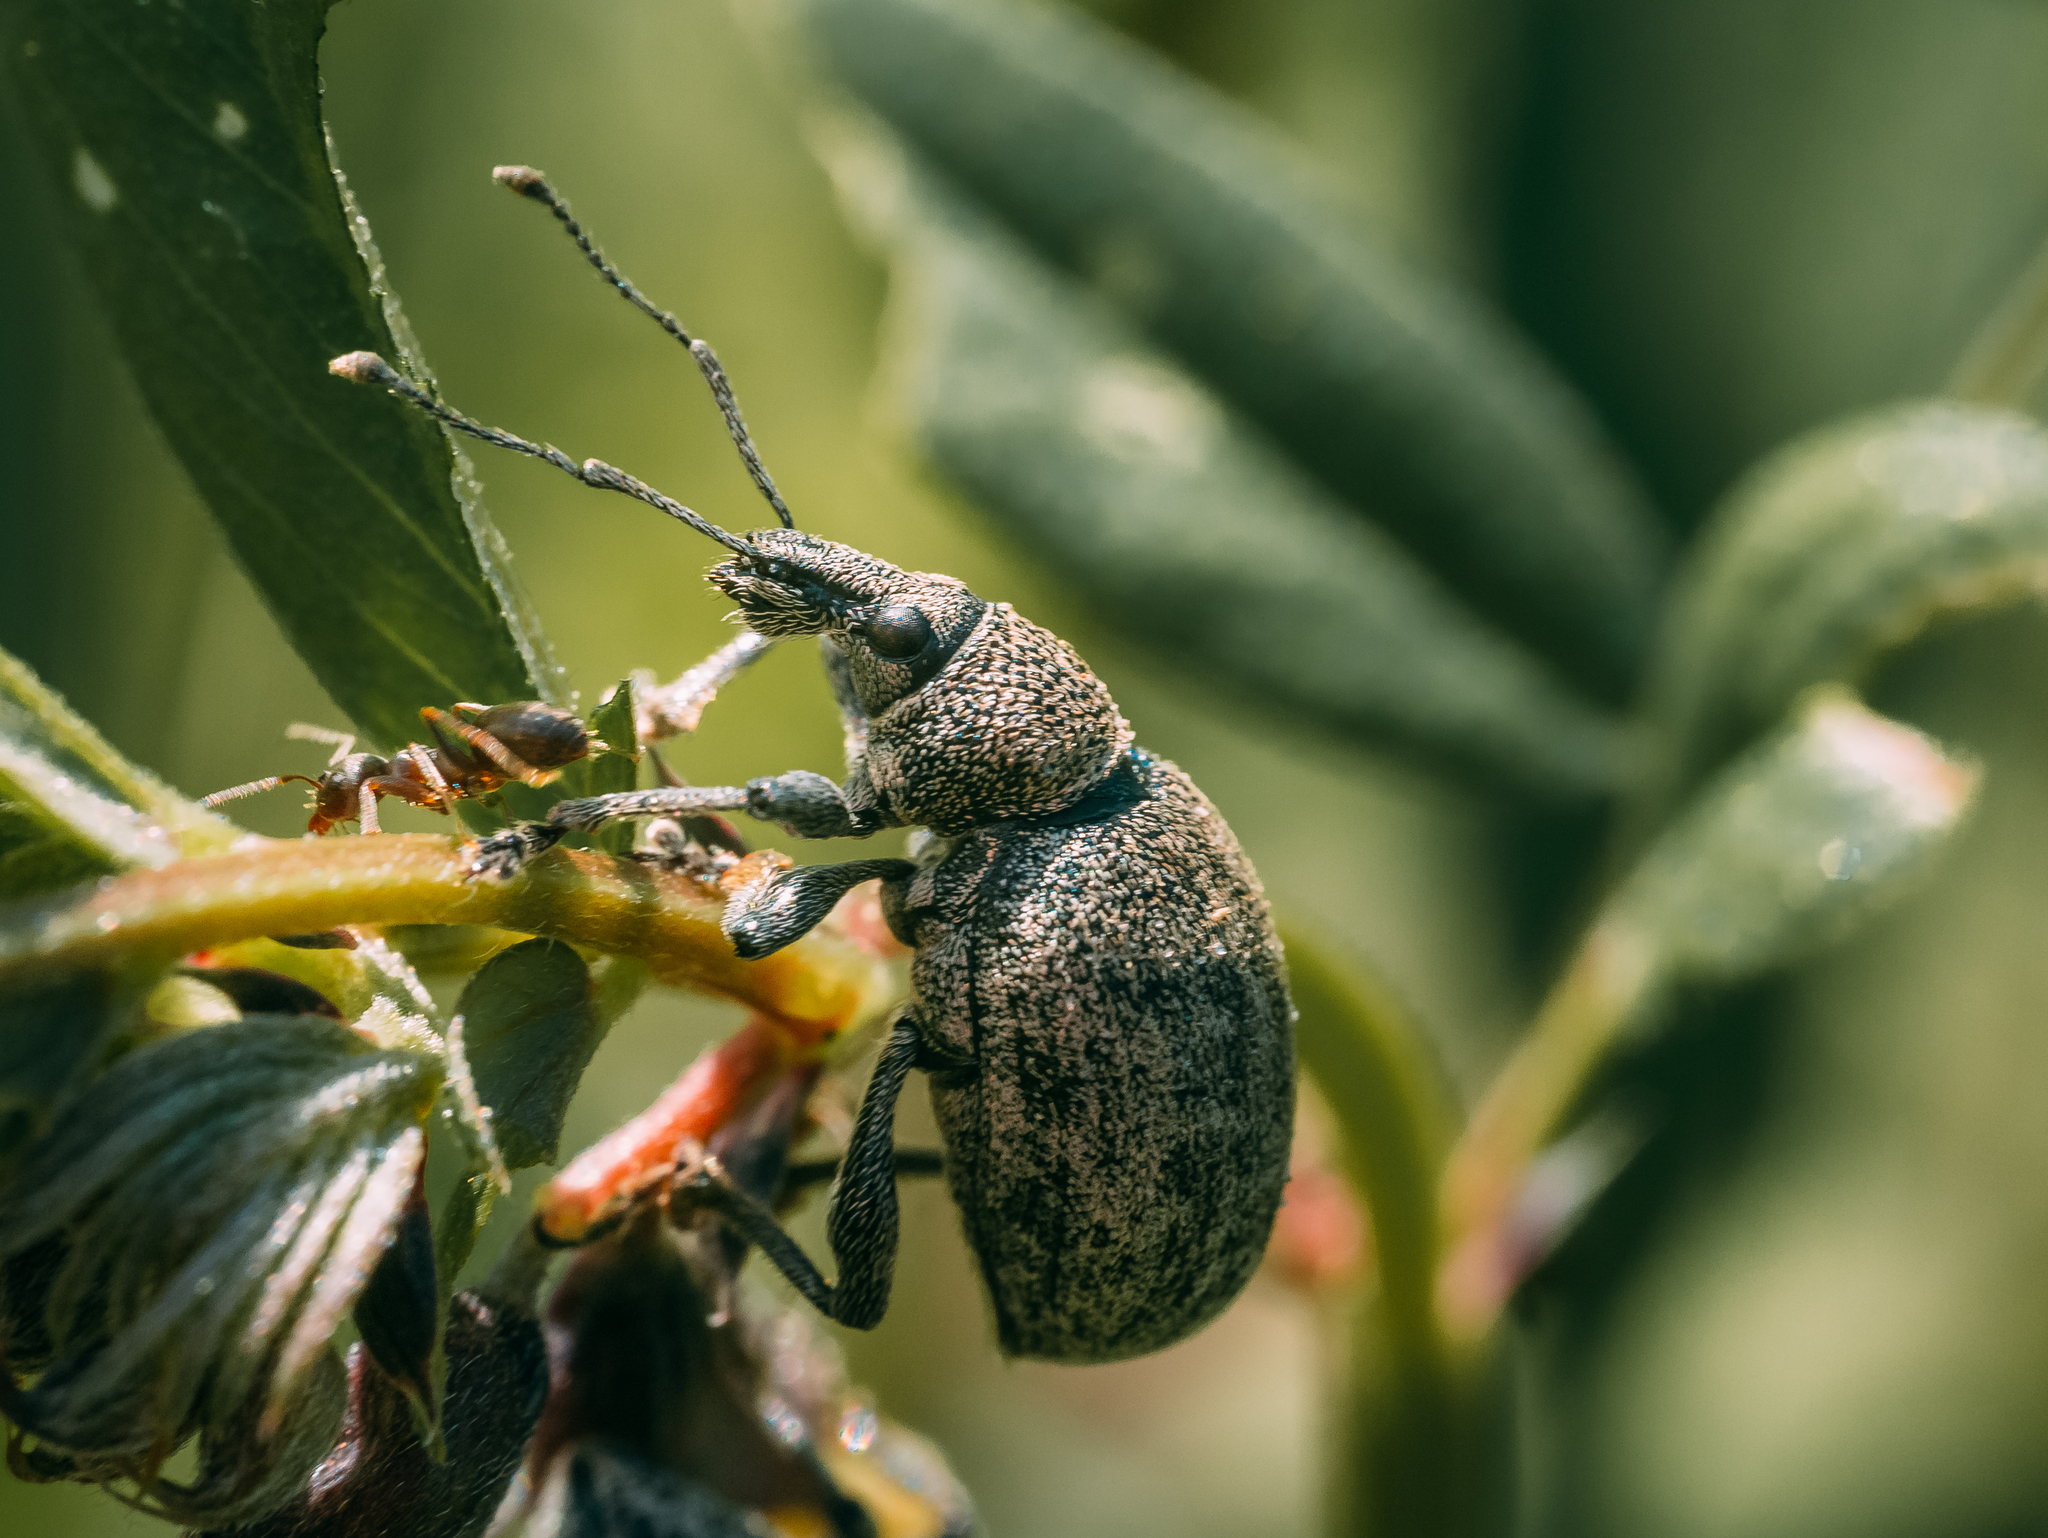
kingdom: Animalia
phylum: Arthropoda
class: Insecta
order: Coleoptera
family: Curculionidae
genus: Otiorhynchus
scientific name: Otiorhynchus ligustici
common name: Weevil
